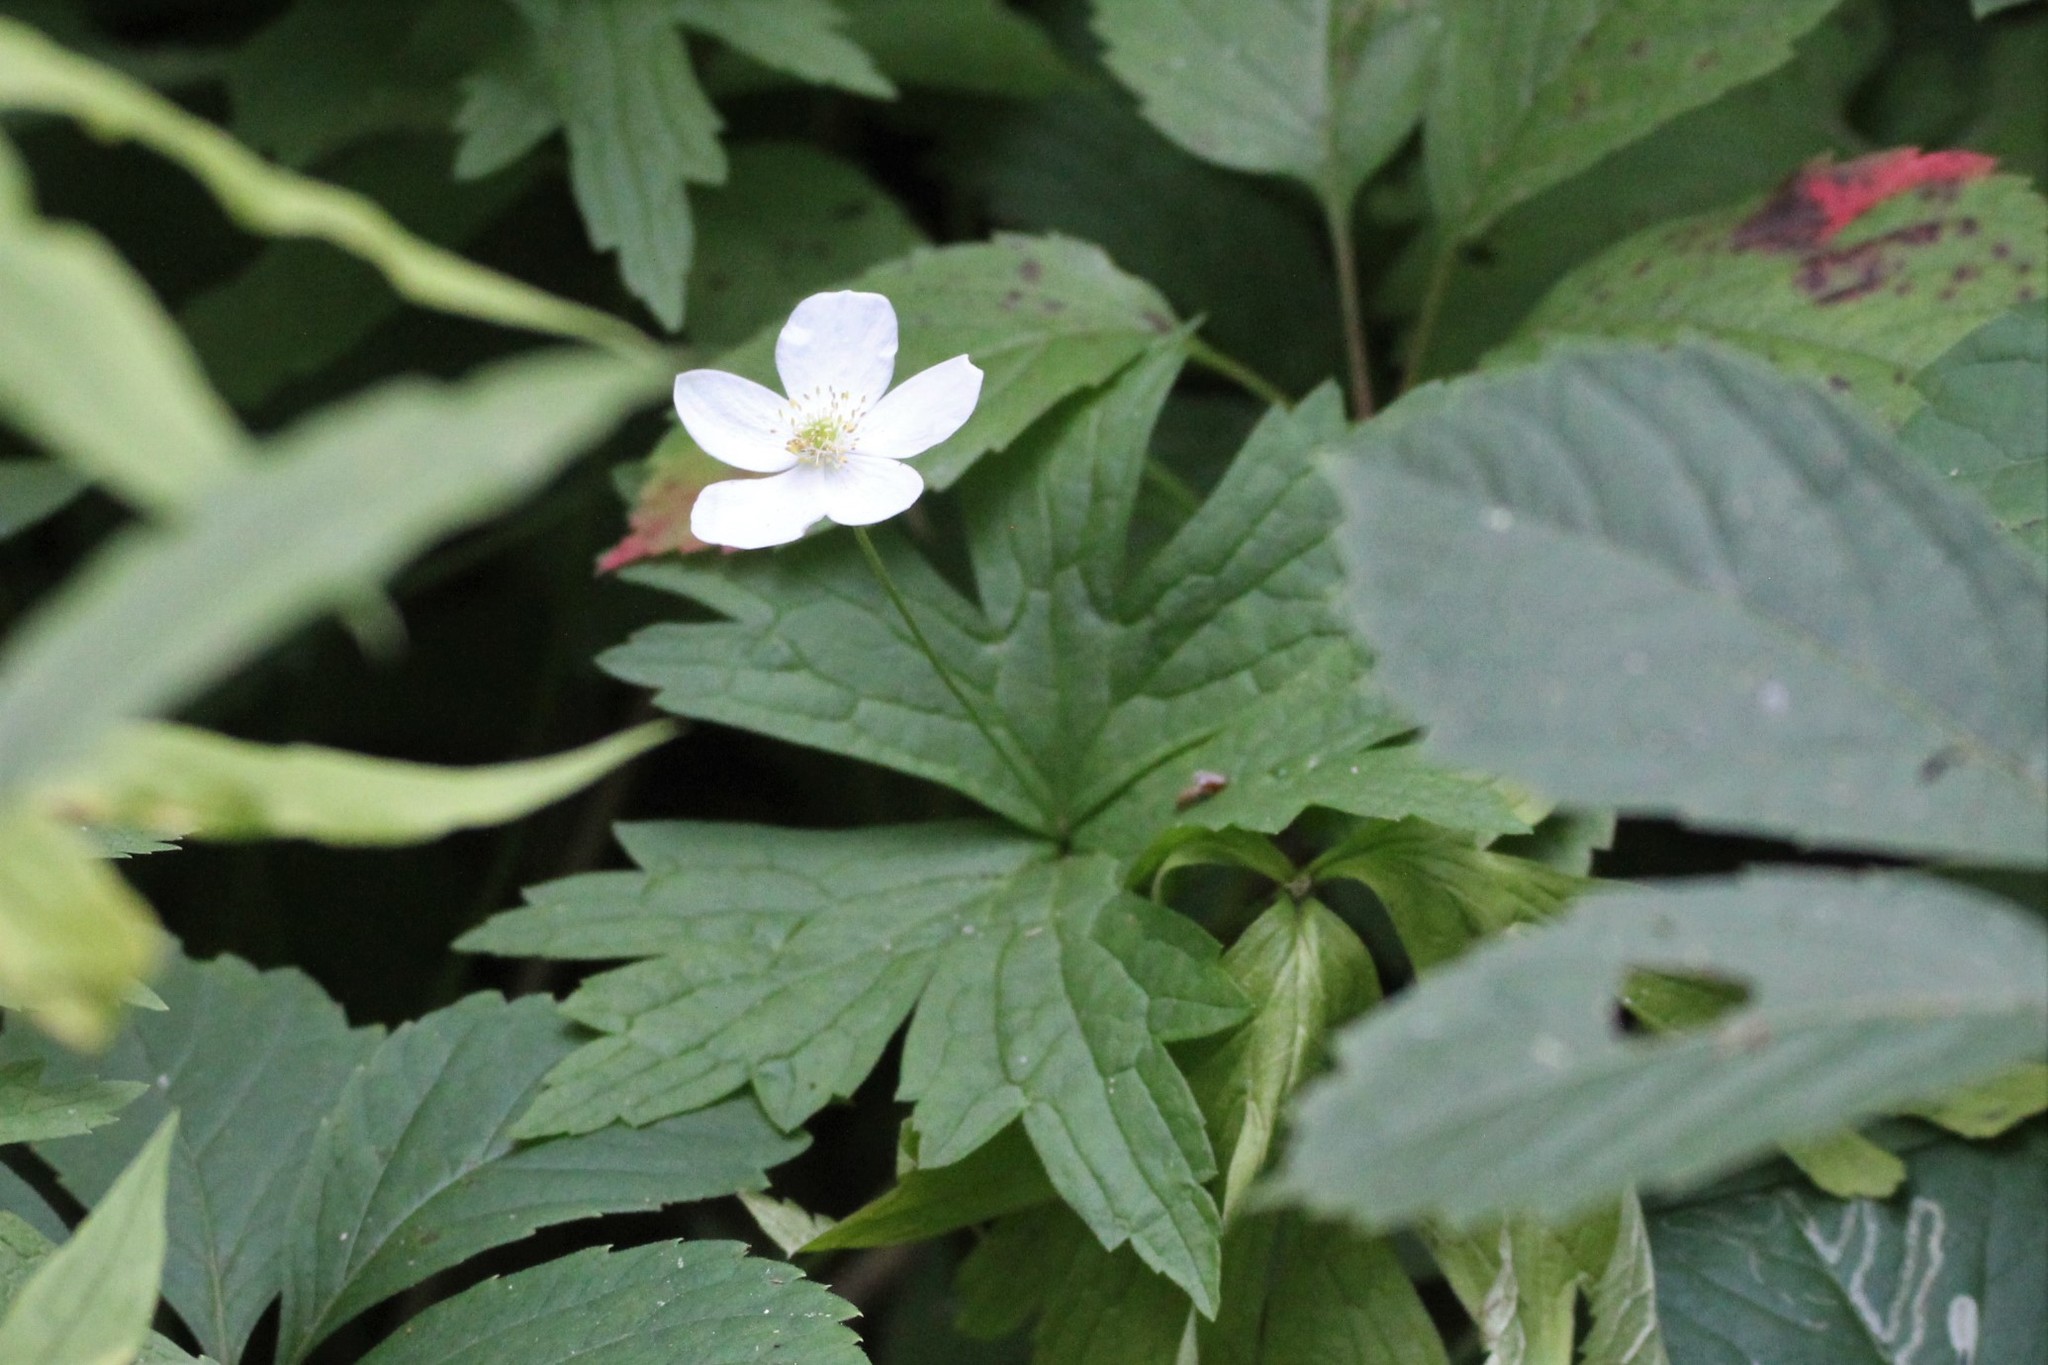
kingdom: Plantae
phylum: Tracheophyta
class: Magnoliopsida
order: Ranunculales
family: Ranunculaceae
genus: Anemonastrum
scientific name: Anemonastrum canadense
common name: Canada anemone
